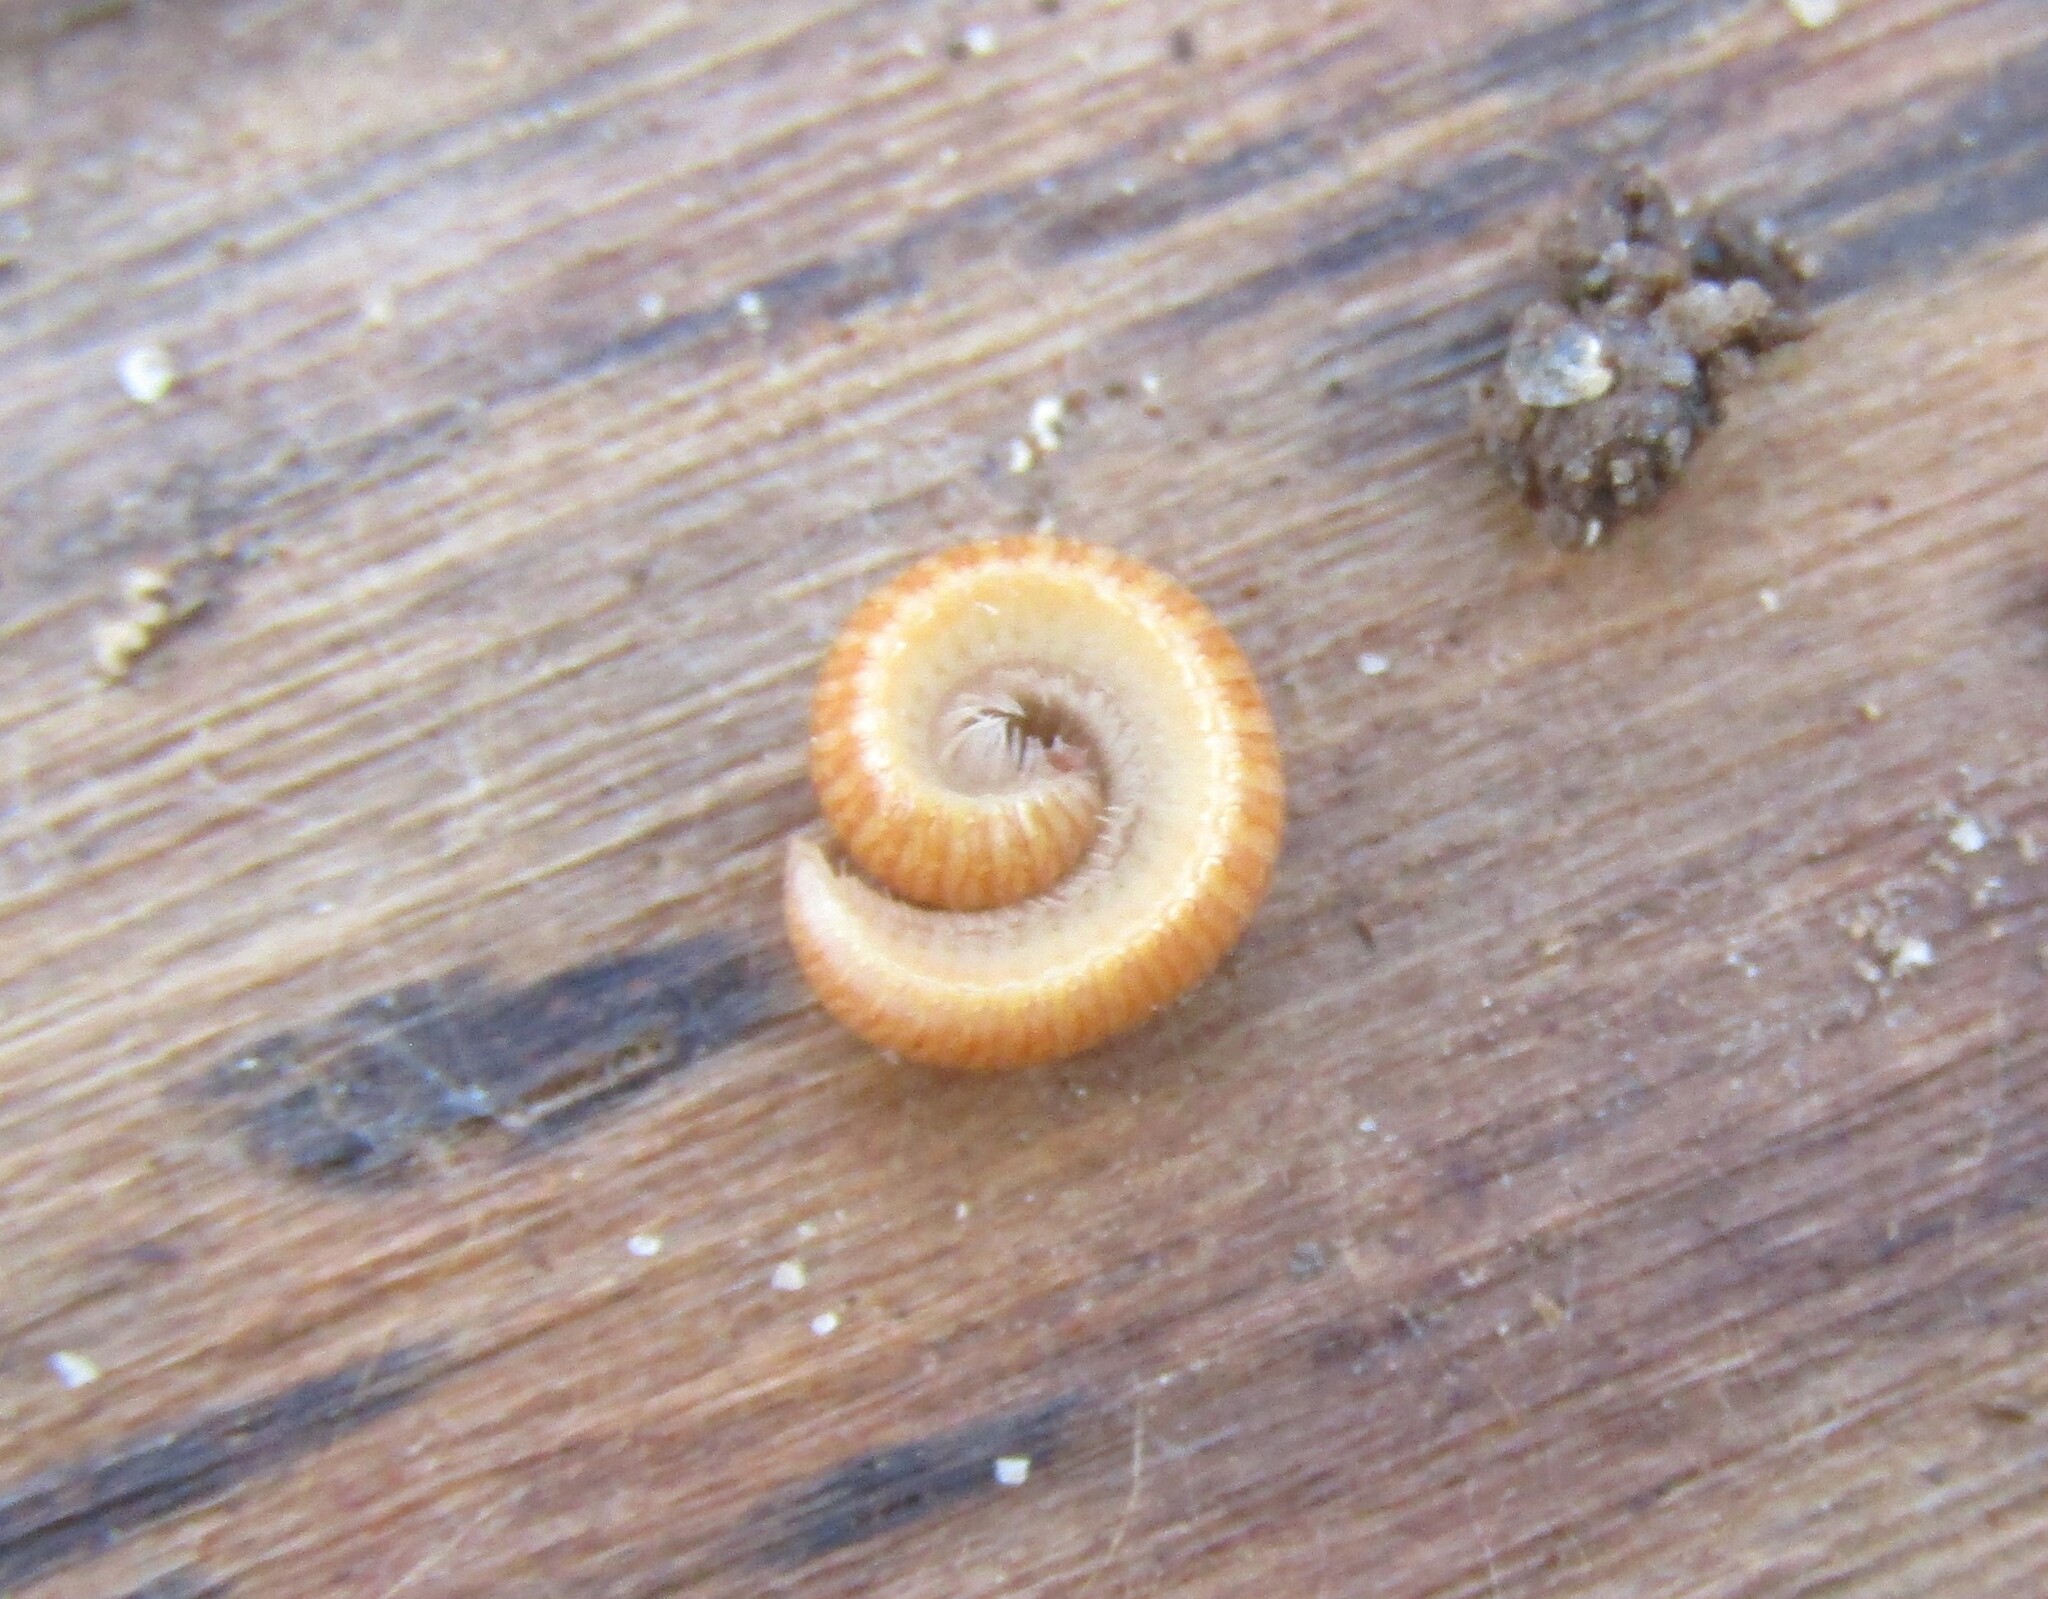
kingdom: Animalia
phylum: Arthropoda
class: Diplopoda
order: Polyzoniida
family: Polyzoniidae
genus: Polyzonium
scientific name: Polyzonium germanicum
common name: Boring millipede
